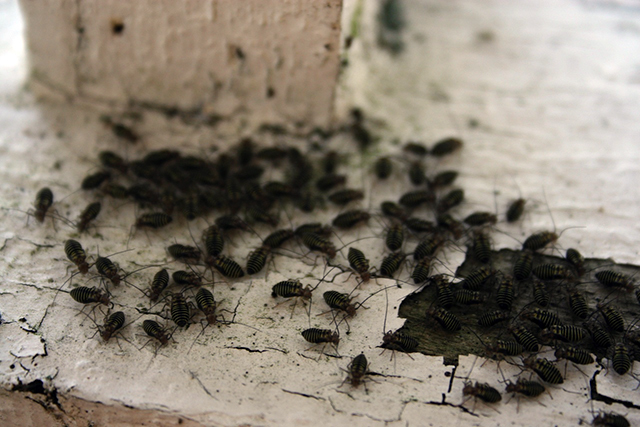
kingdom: Animalia
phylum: Arthropoda
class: Insecta
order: Psocodea
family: Psocidae
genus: Cerastipsocus
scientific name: Cerastipsocus venosus
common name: Tree cattle
